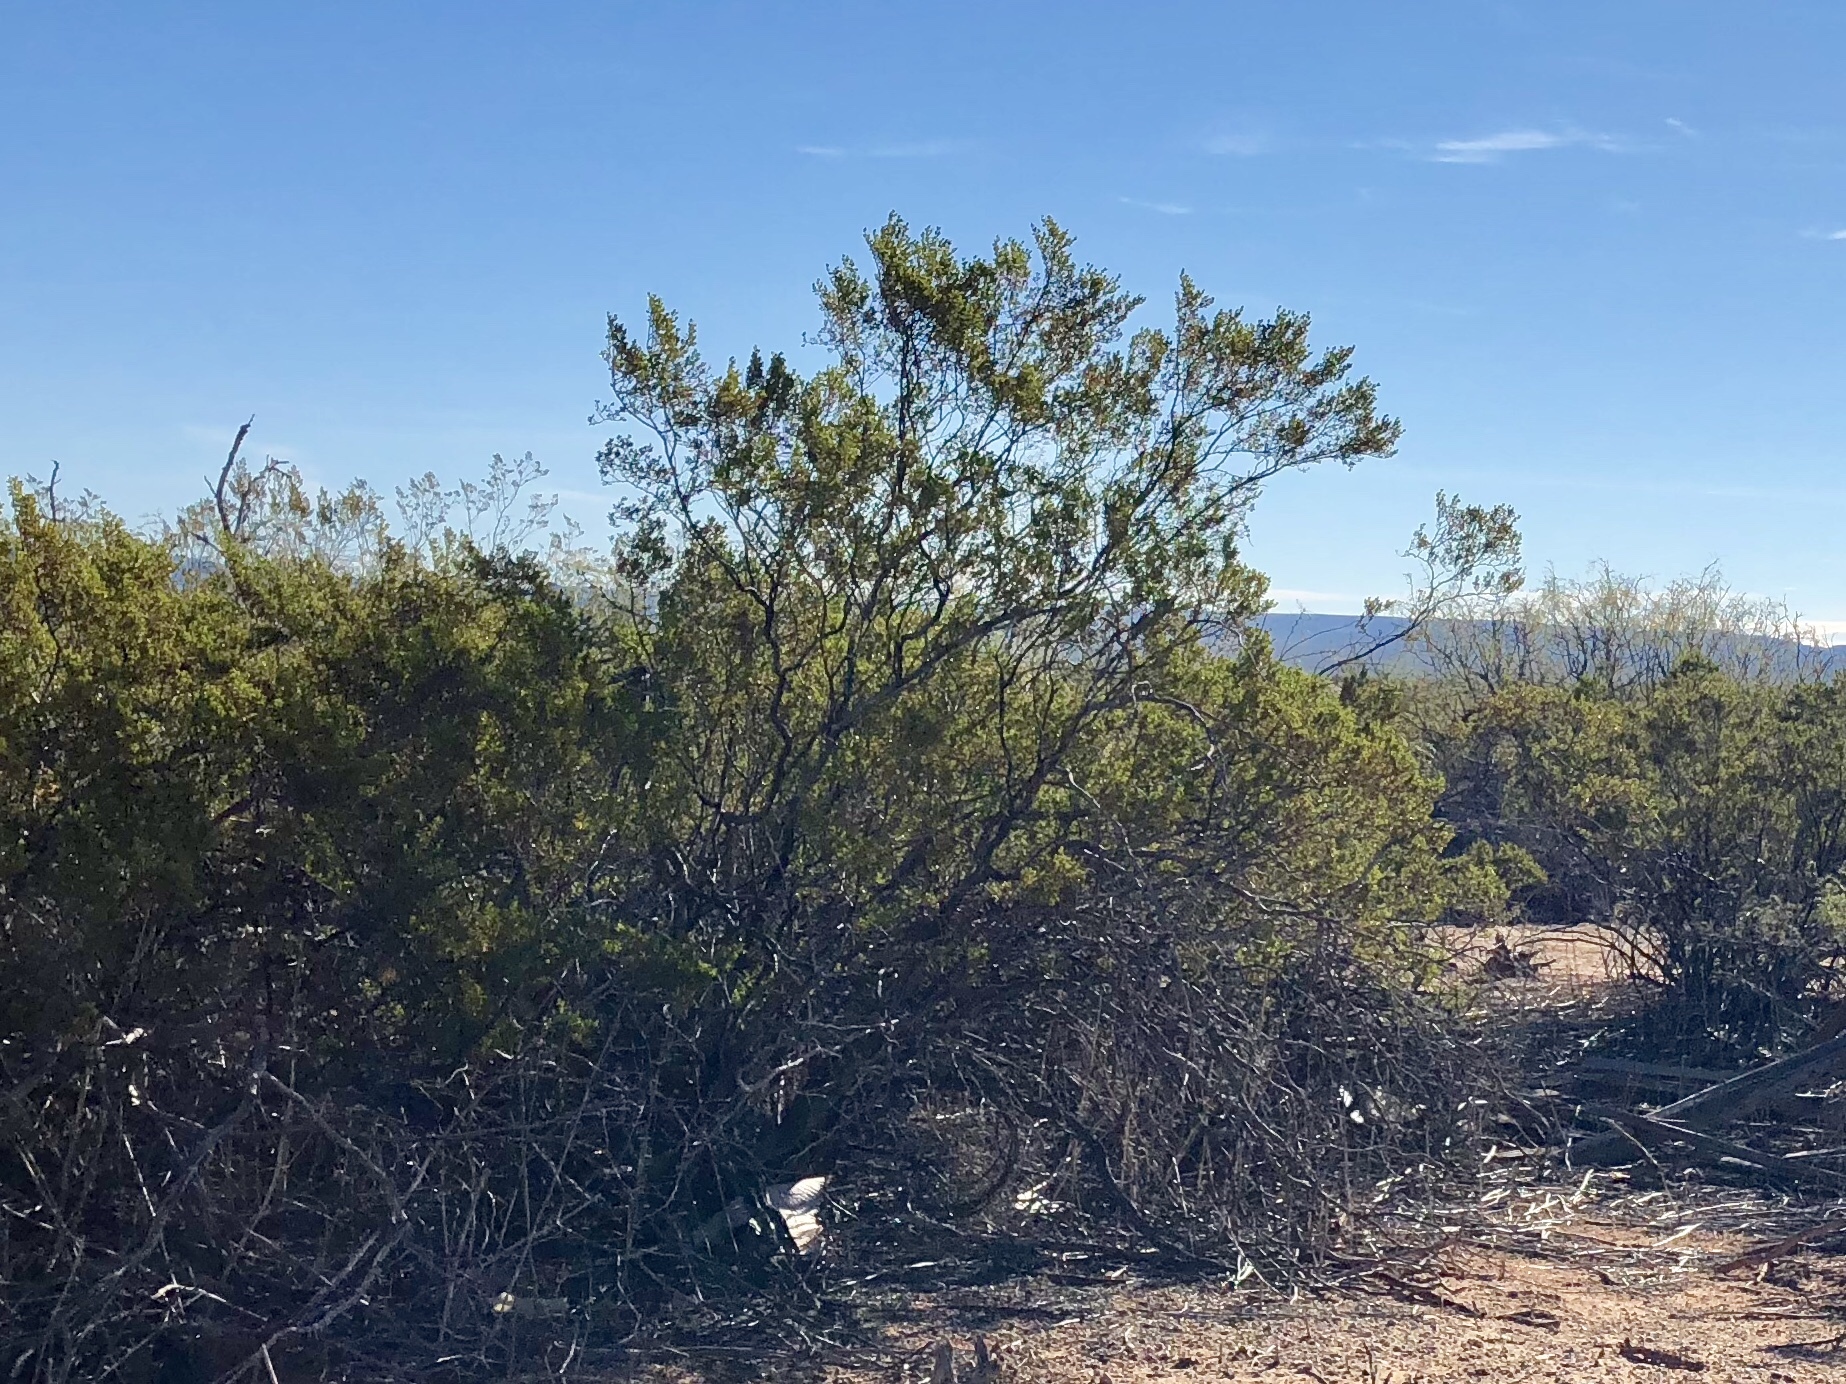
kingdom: Plantae
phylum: Tracheophyta
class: Magnoliopsida
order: Zygophyllales
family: Zygophyllaceae
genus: Larrea
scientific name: Larrea tridentata
